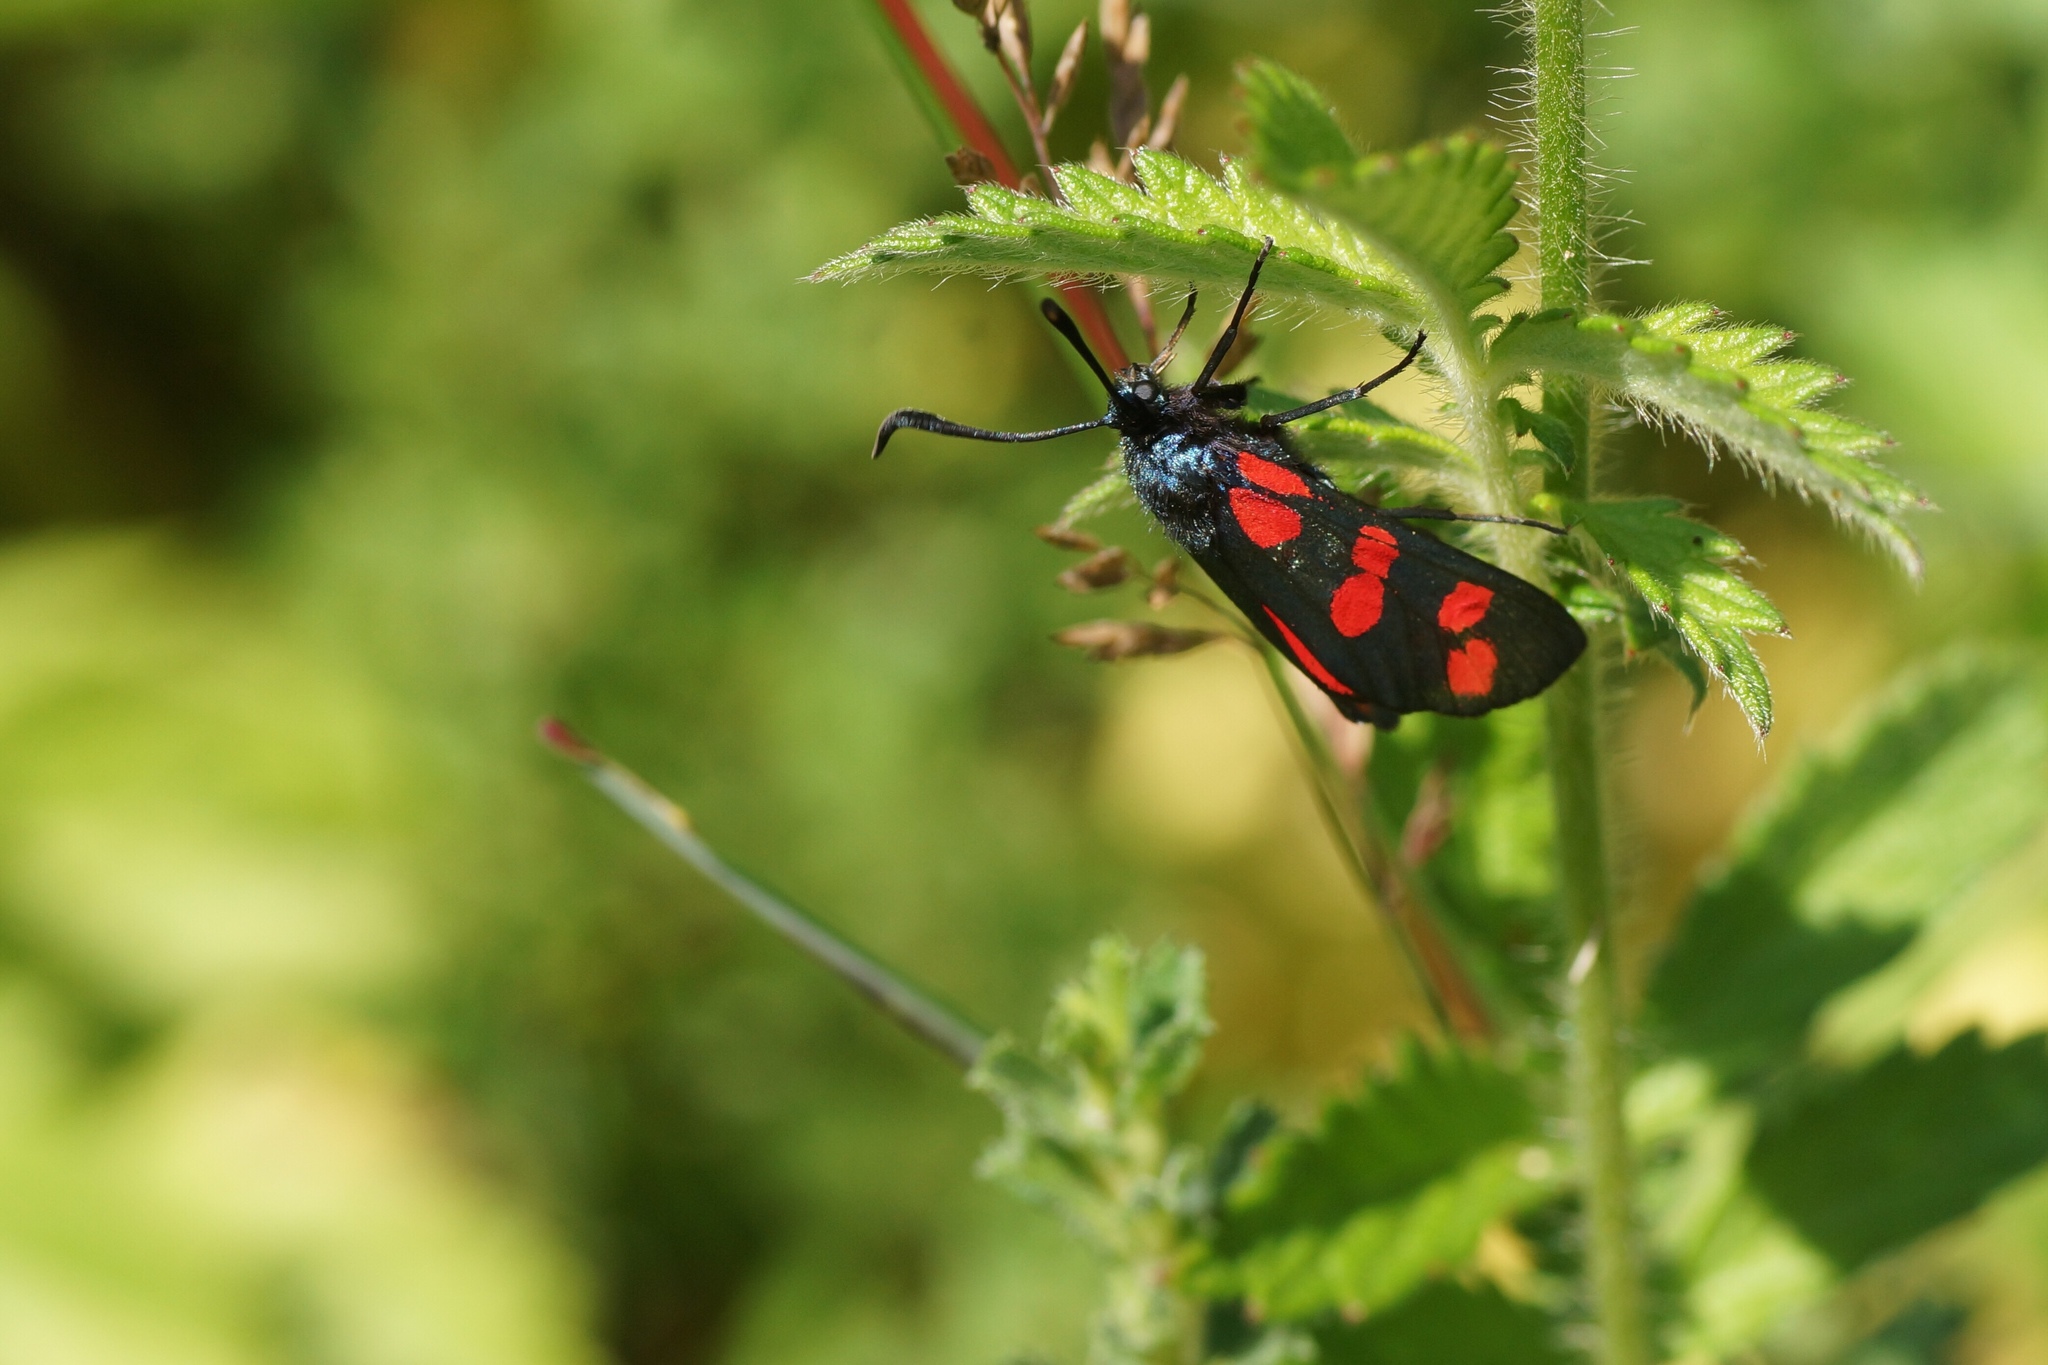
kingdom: Animalia
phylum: Arthropoda
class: Insecta
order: Lepidoptera
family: Zygaenidae
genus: Zygaena
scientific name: Zygaena filipendulae
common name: Six-spot burnet
